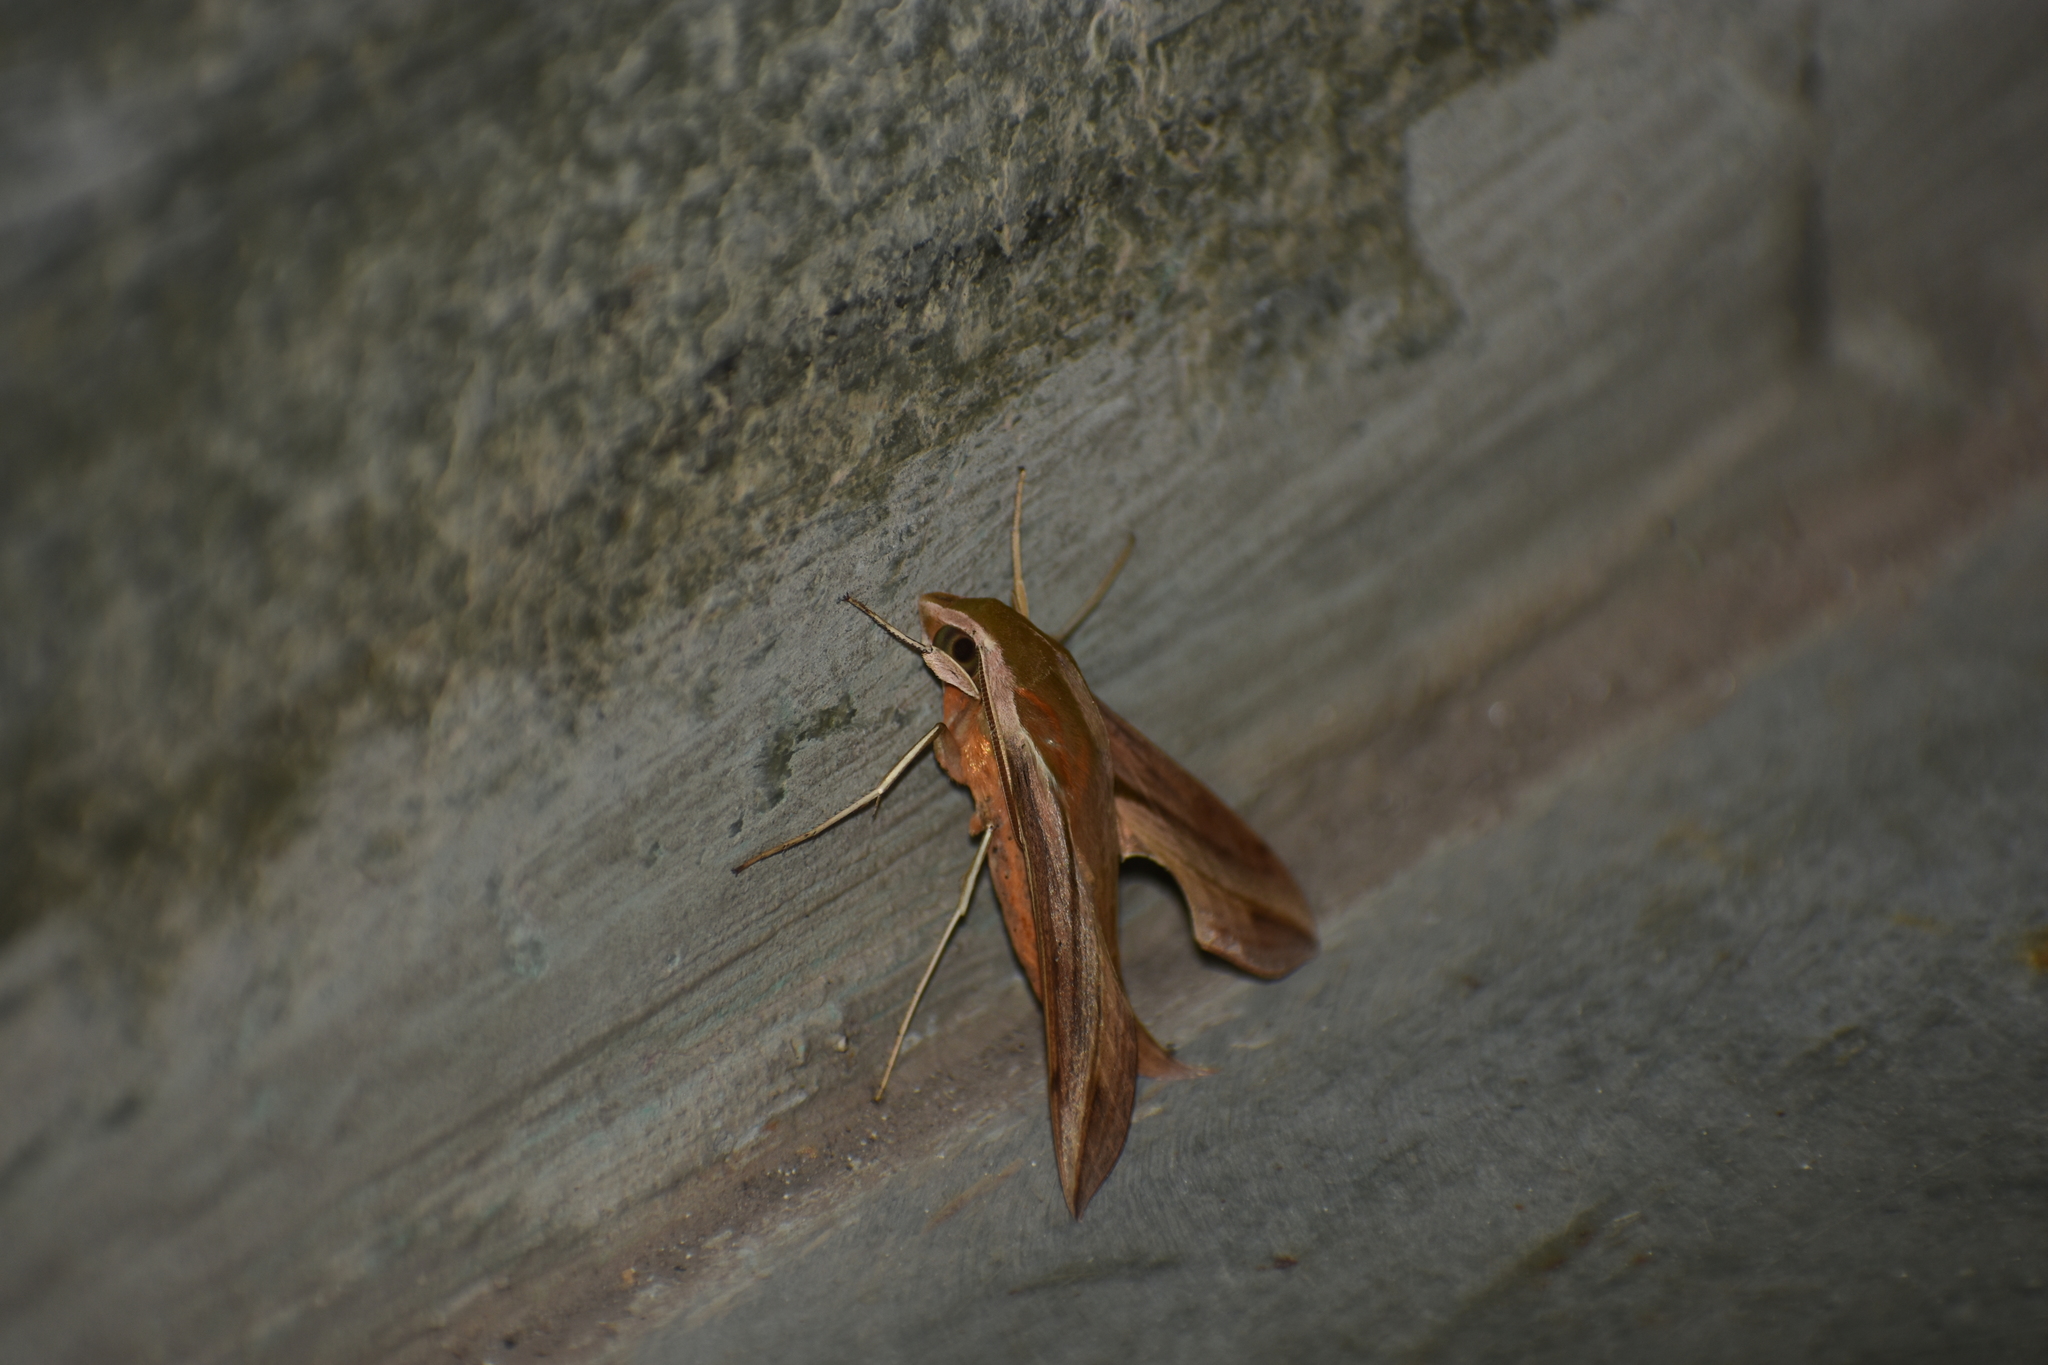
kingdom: Animalia
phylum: Arthropoda
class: Insecta
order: Lepidoptera
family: Sphingidae
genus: Hippotion
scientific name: Hippotion rosetta
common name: Vine hawk moth
